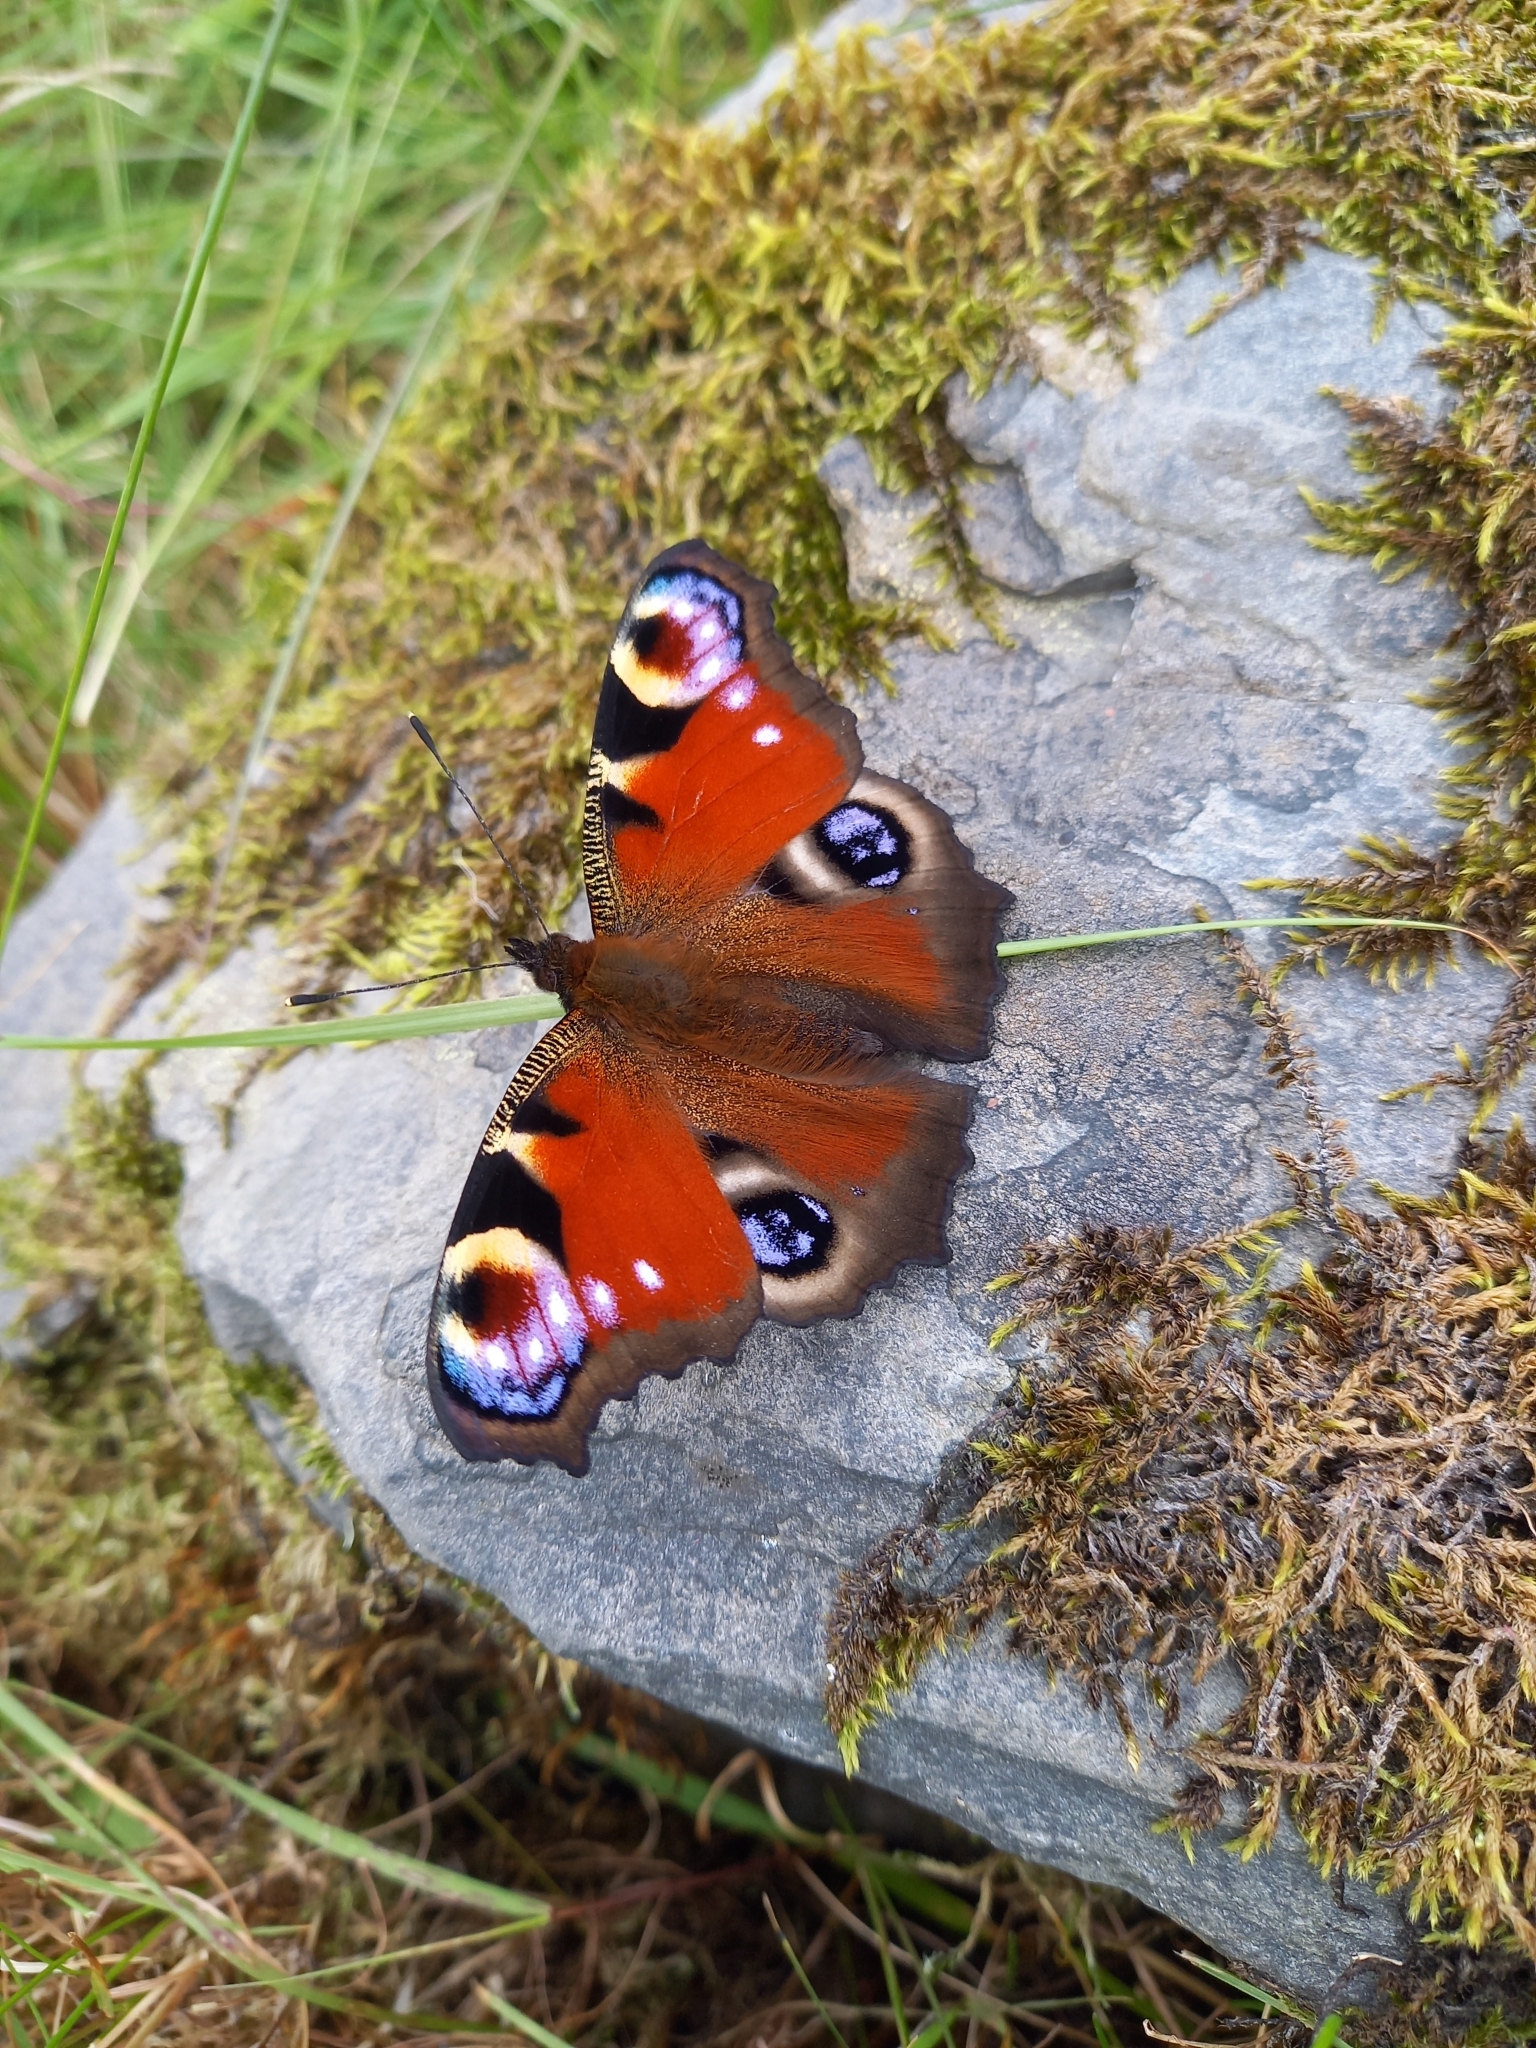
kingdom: Animalia
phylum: Arthropoda
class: Insecta
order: Lepidoptera
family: Nymphalidae
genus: Aglais
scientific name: Aglais io
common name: Peacock
